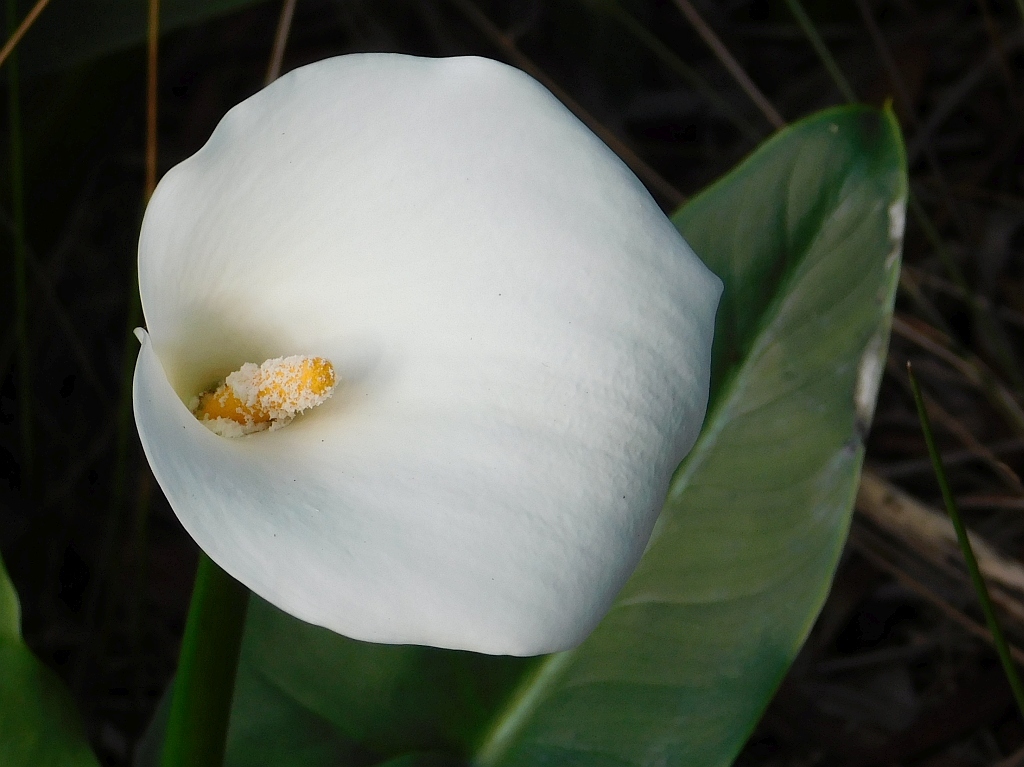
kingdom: Plantae
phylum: Tracheophyta
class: Liliopsida
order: Alismatales
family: Araceae
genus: Zantedeschia
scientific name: Zantedeschia aethiopica
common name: Altar-lily
